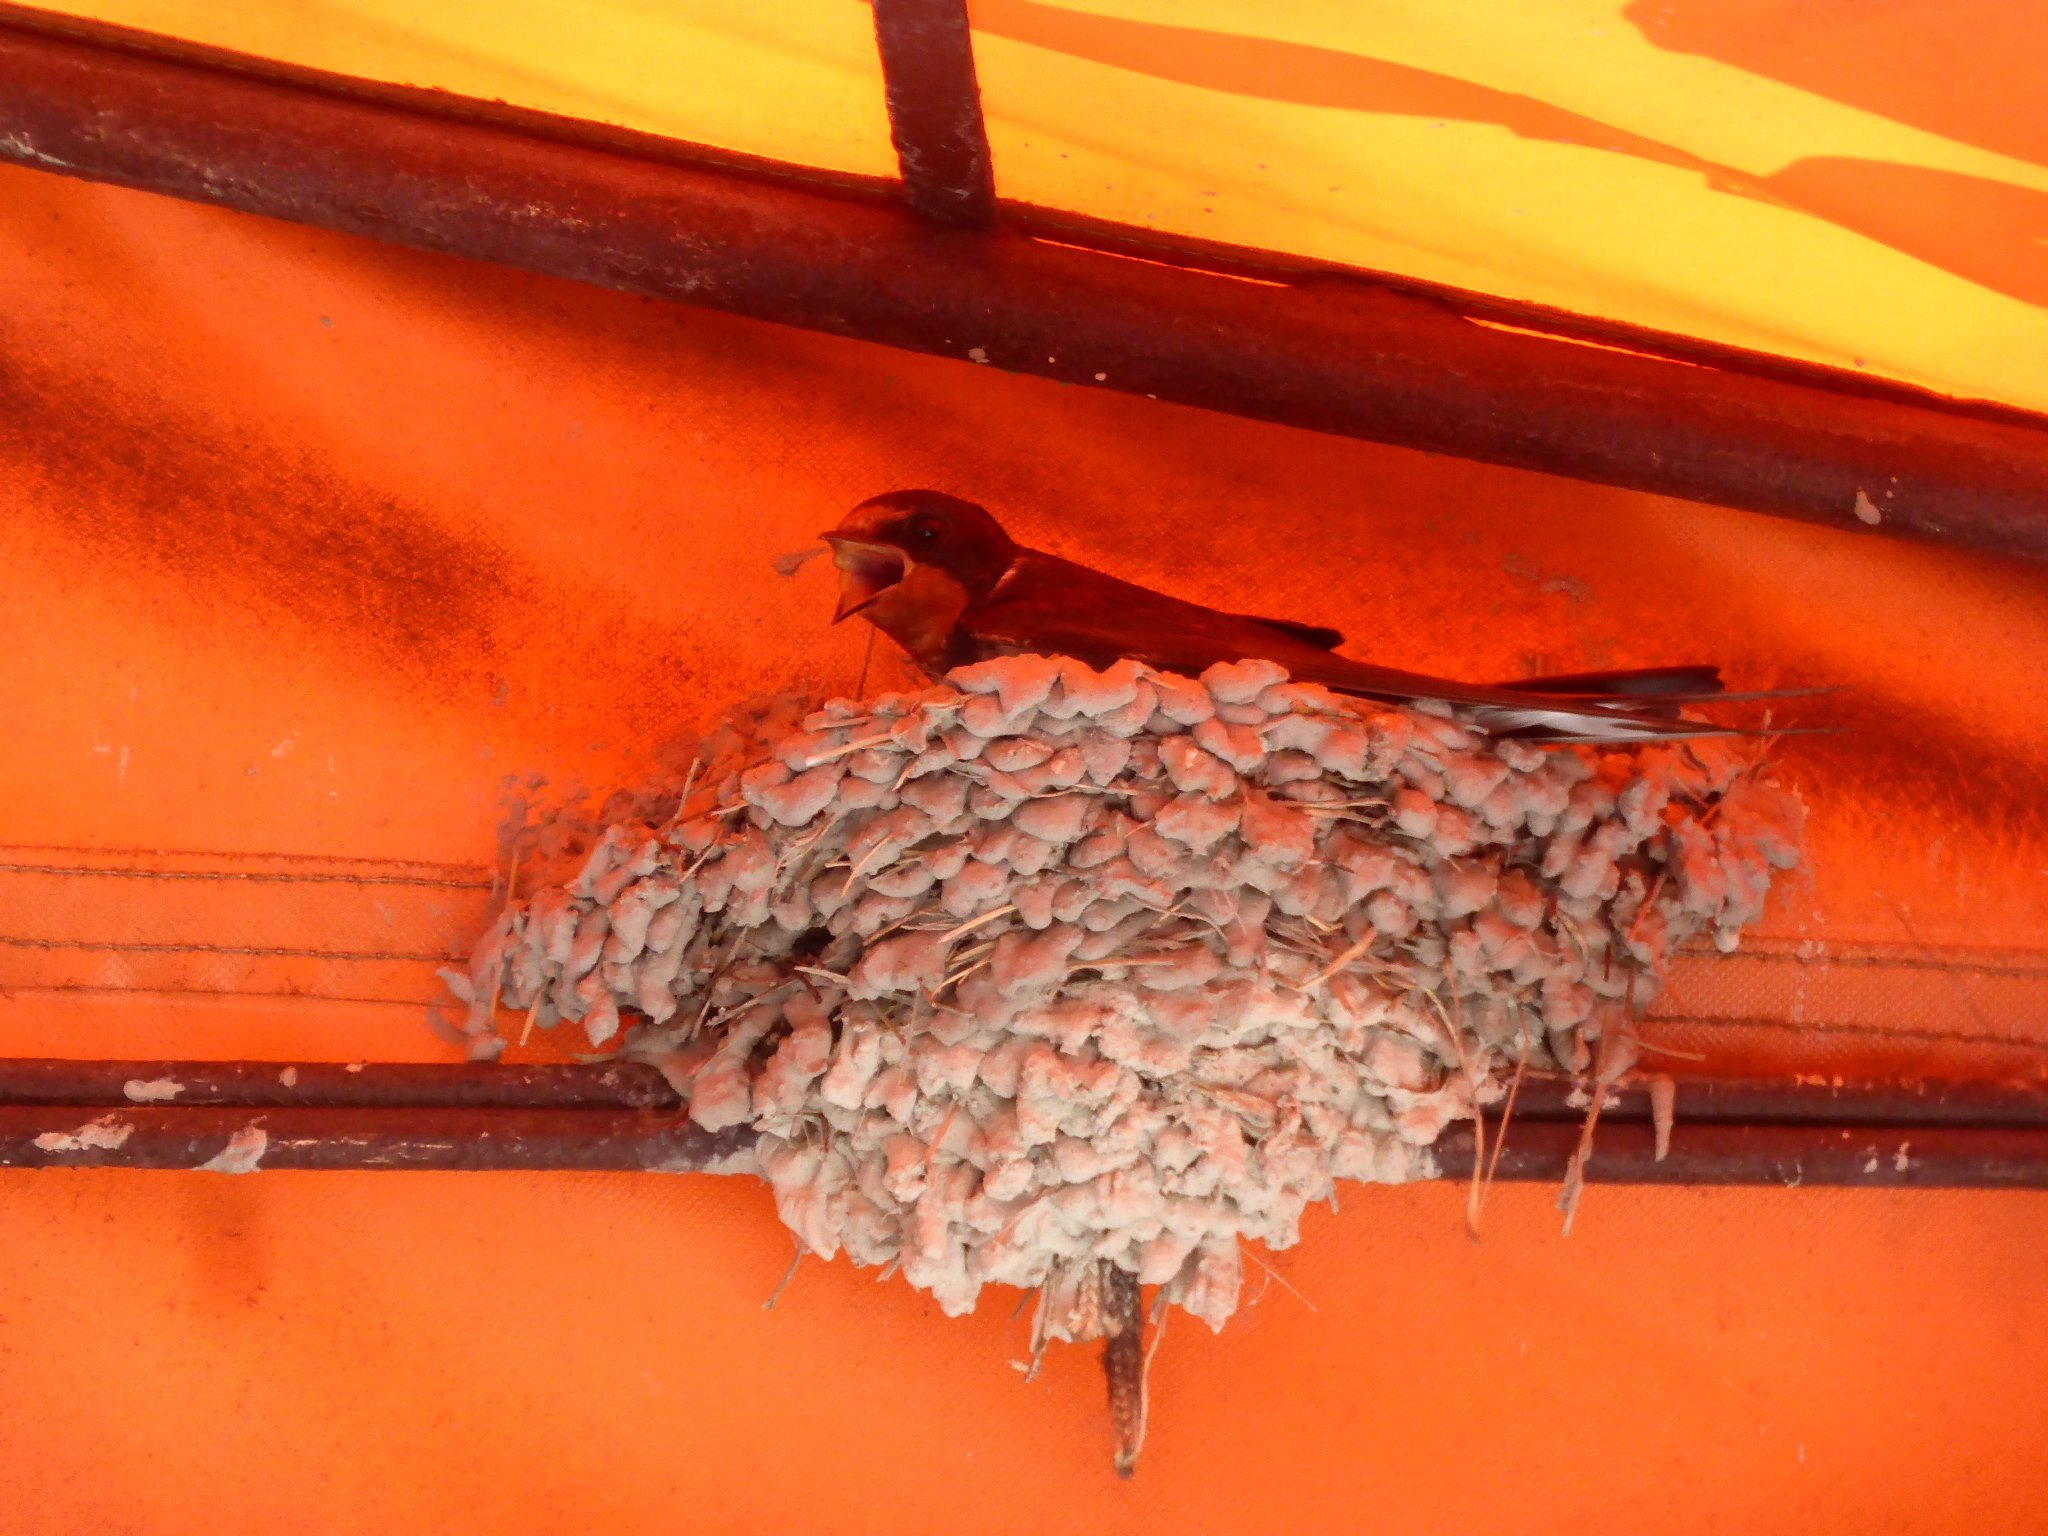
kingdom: Animalia
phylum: Chordata
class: Aves
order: Passeriformes
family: Hirundinidae
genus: Hirundo
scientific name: Hirundo rustica
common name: Barn swallow
